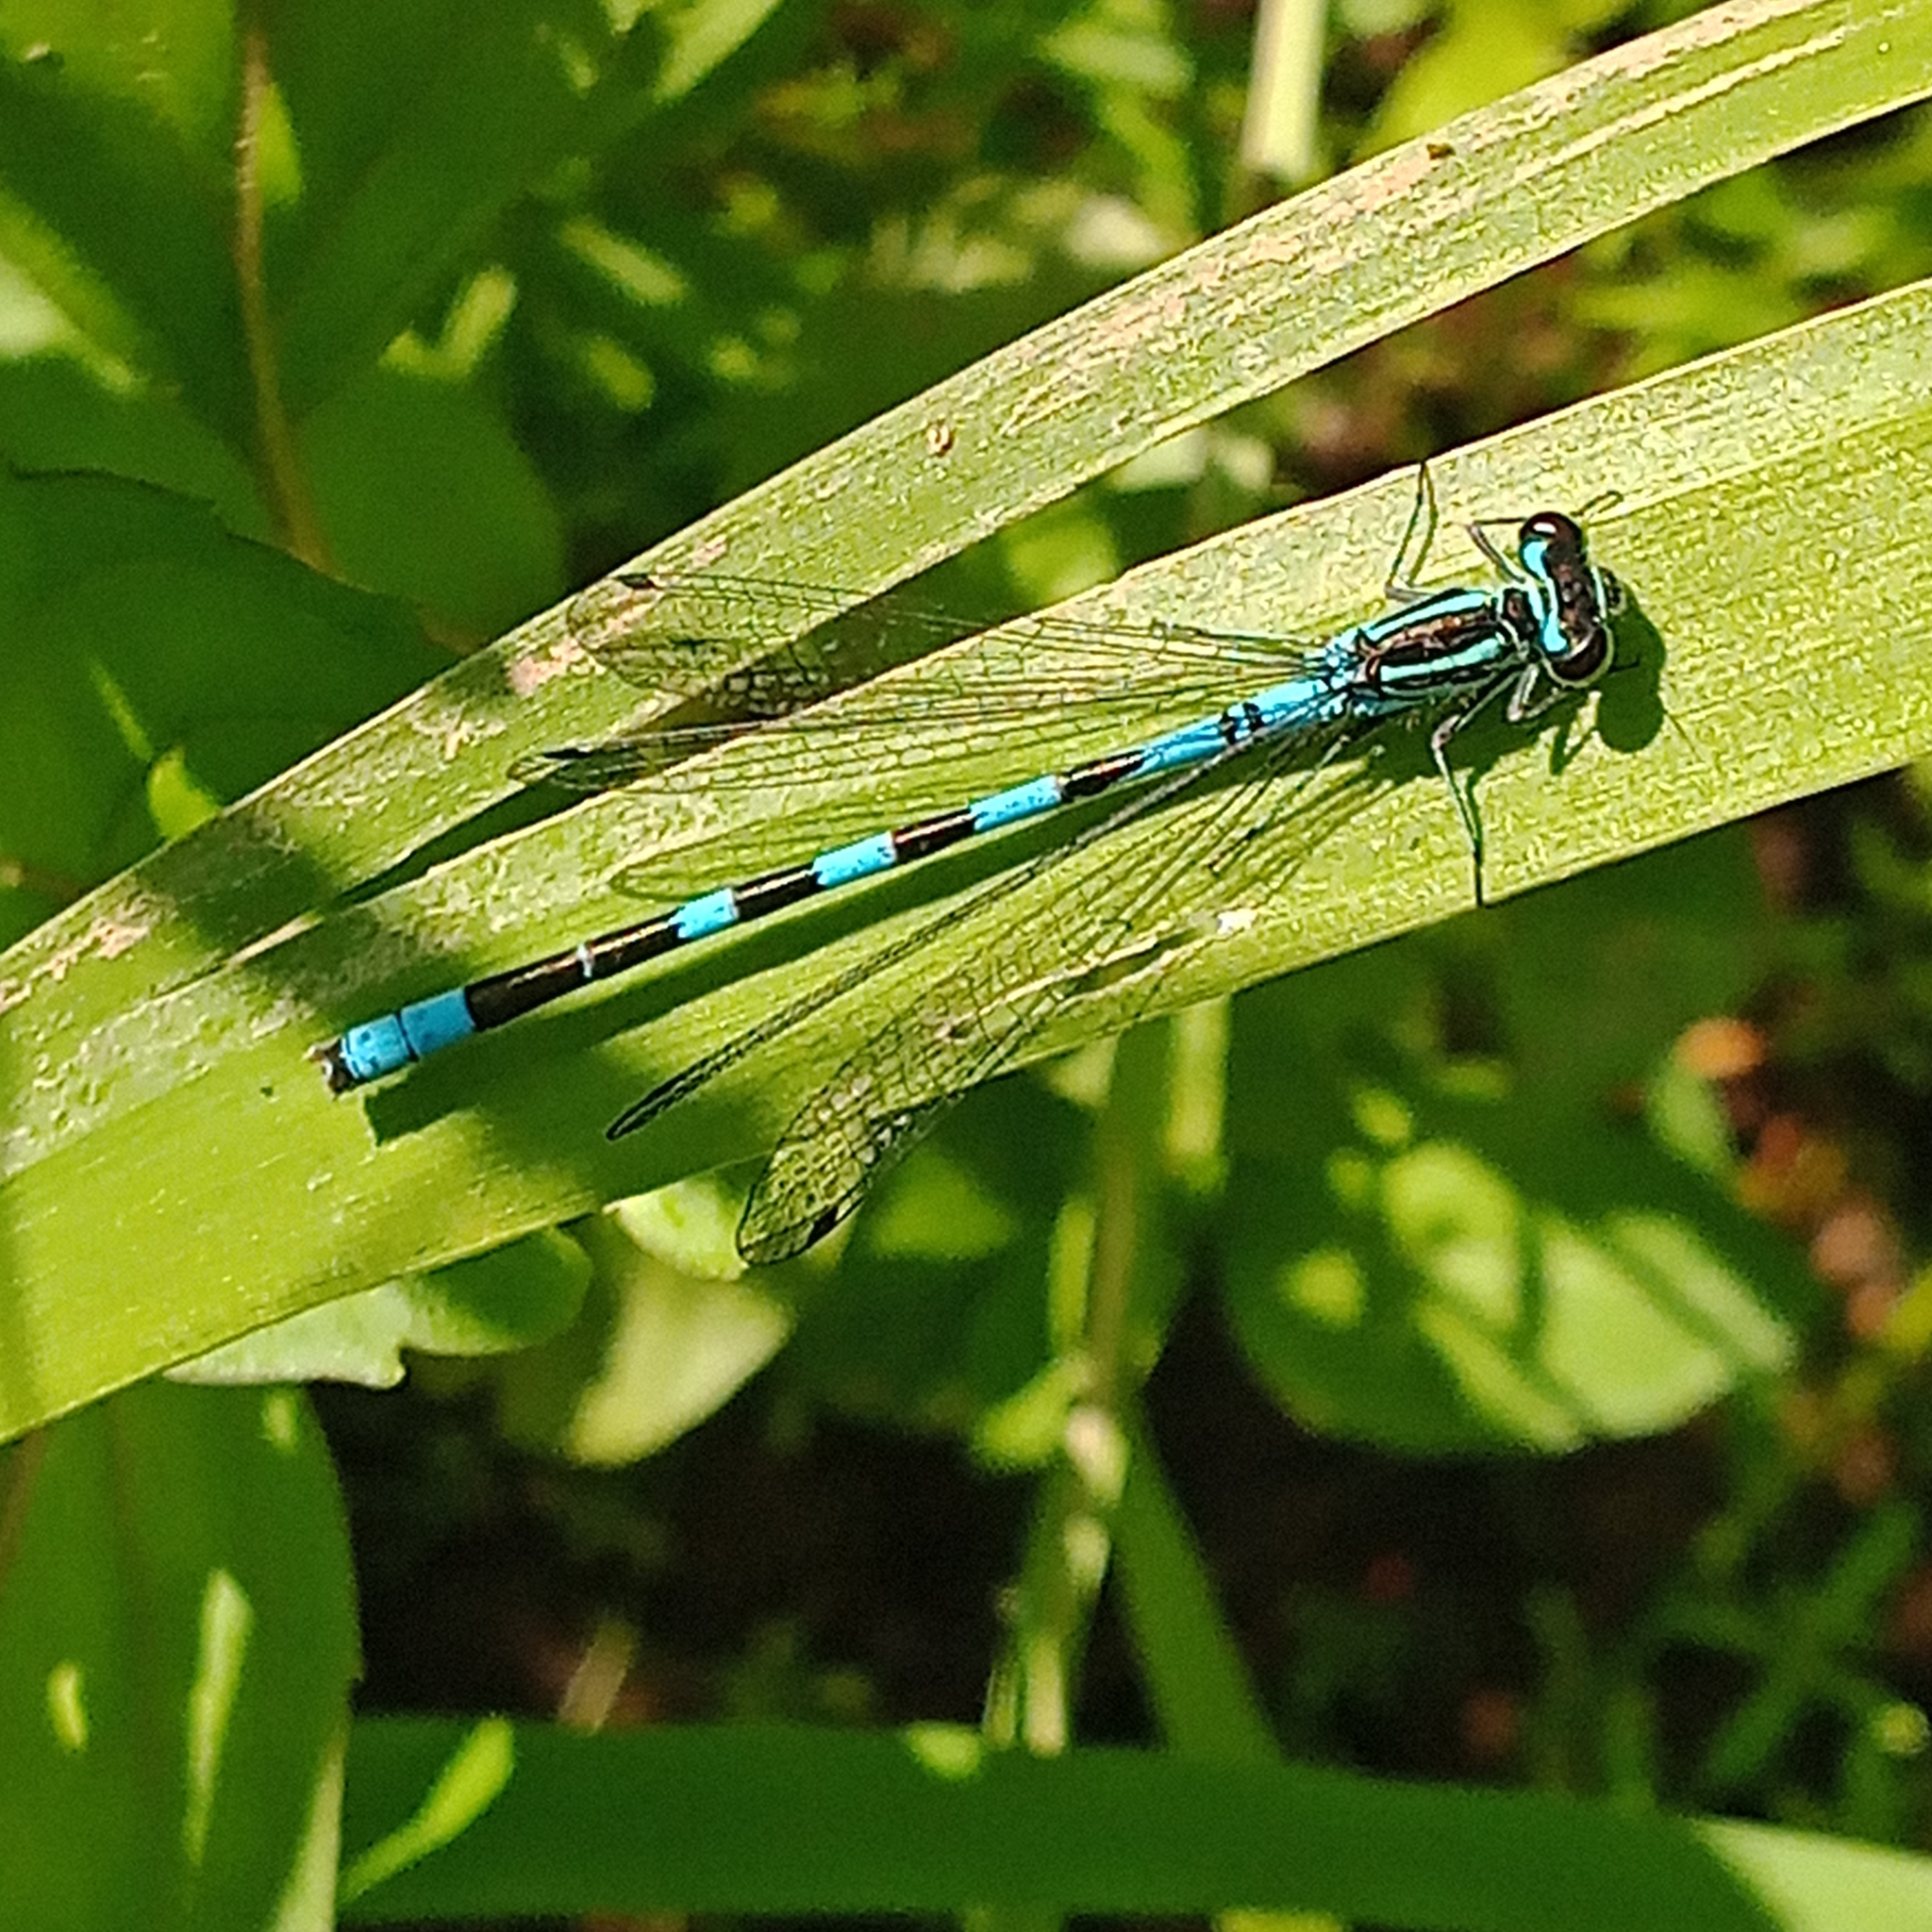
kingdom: Animalia
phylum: Arthropoda
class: Insecta
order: Odonata
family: Coenagrionidae
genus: Coenagrion
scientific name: Coenagrion hastulatum
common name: Spearhead bluet
